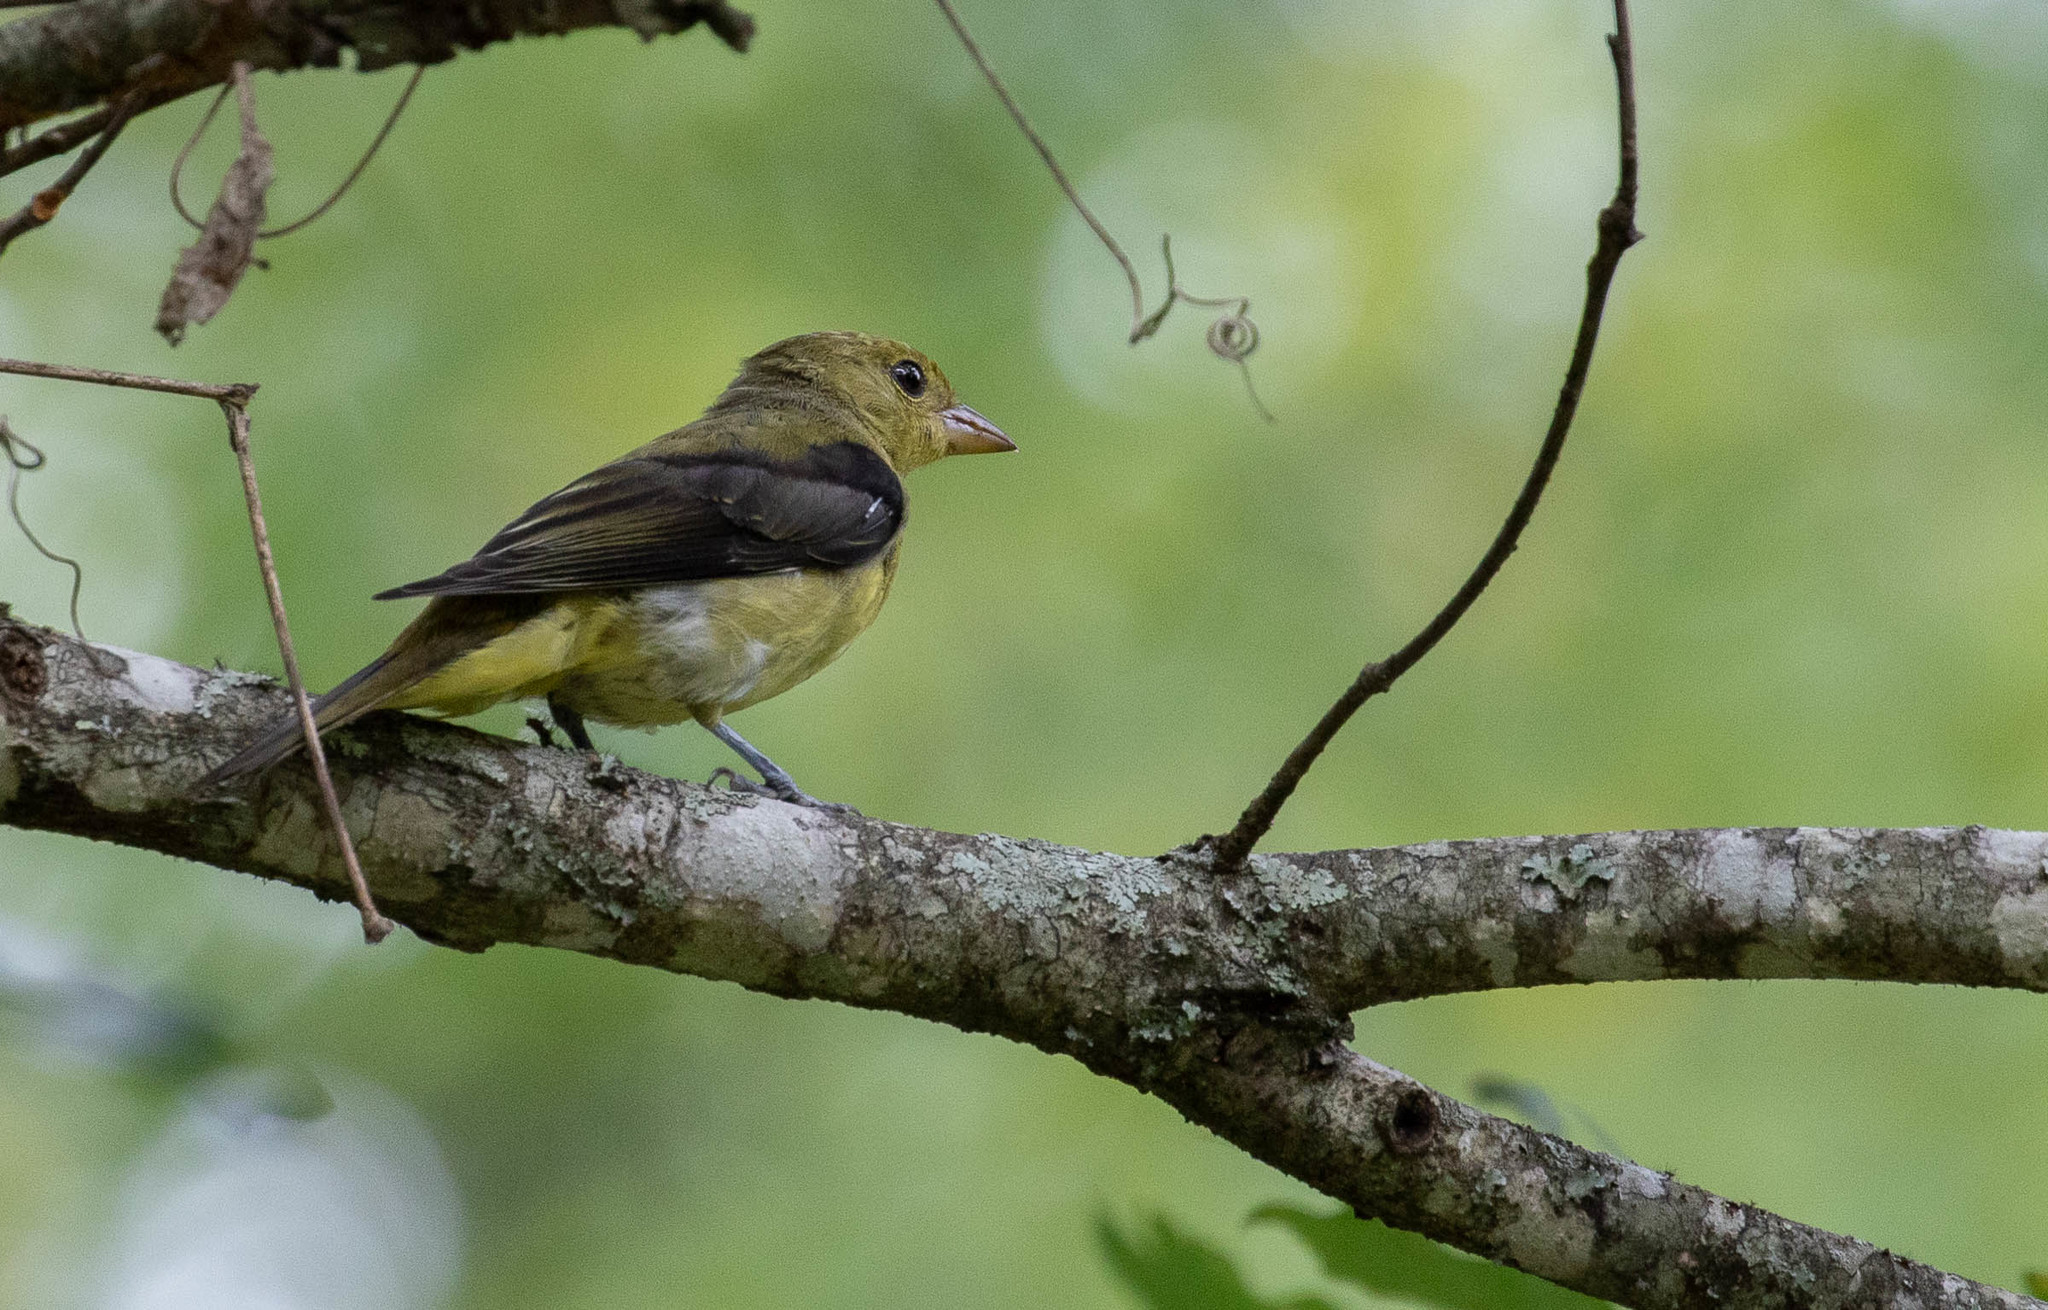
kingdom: Animalia
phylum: Chordata
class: Aves
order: Passeriformes
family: Cardinalidae
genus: Piranga
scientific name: Piranga olivacea
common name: Scarlet tanager
